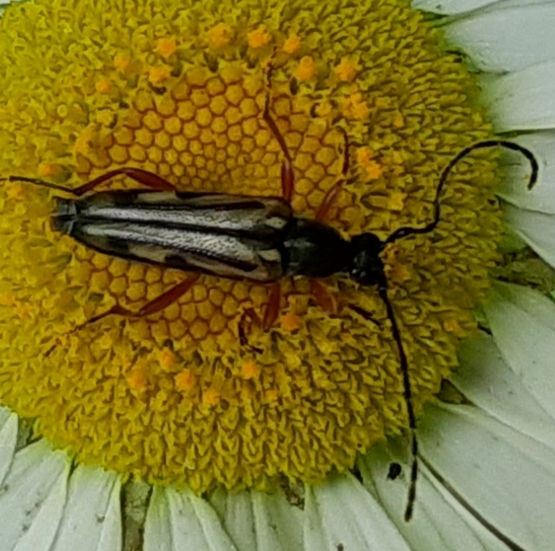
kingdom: Animalia
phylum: Arthropoda
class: Insecta
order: Coleoptera
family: Cerambycidae
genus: Analeptura
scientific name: Analeptura lineola
